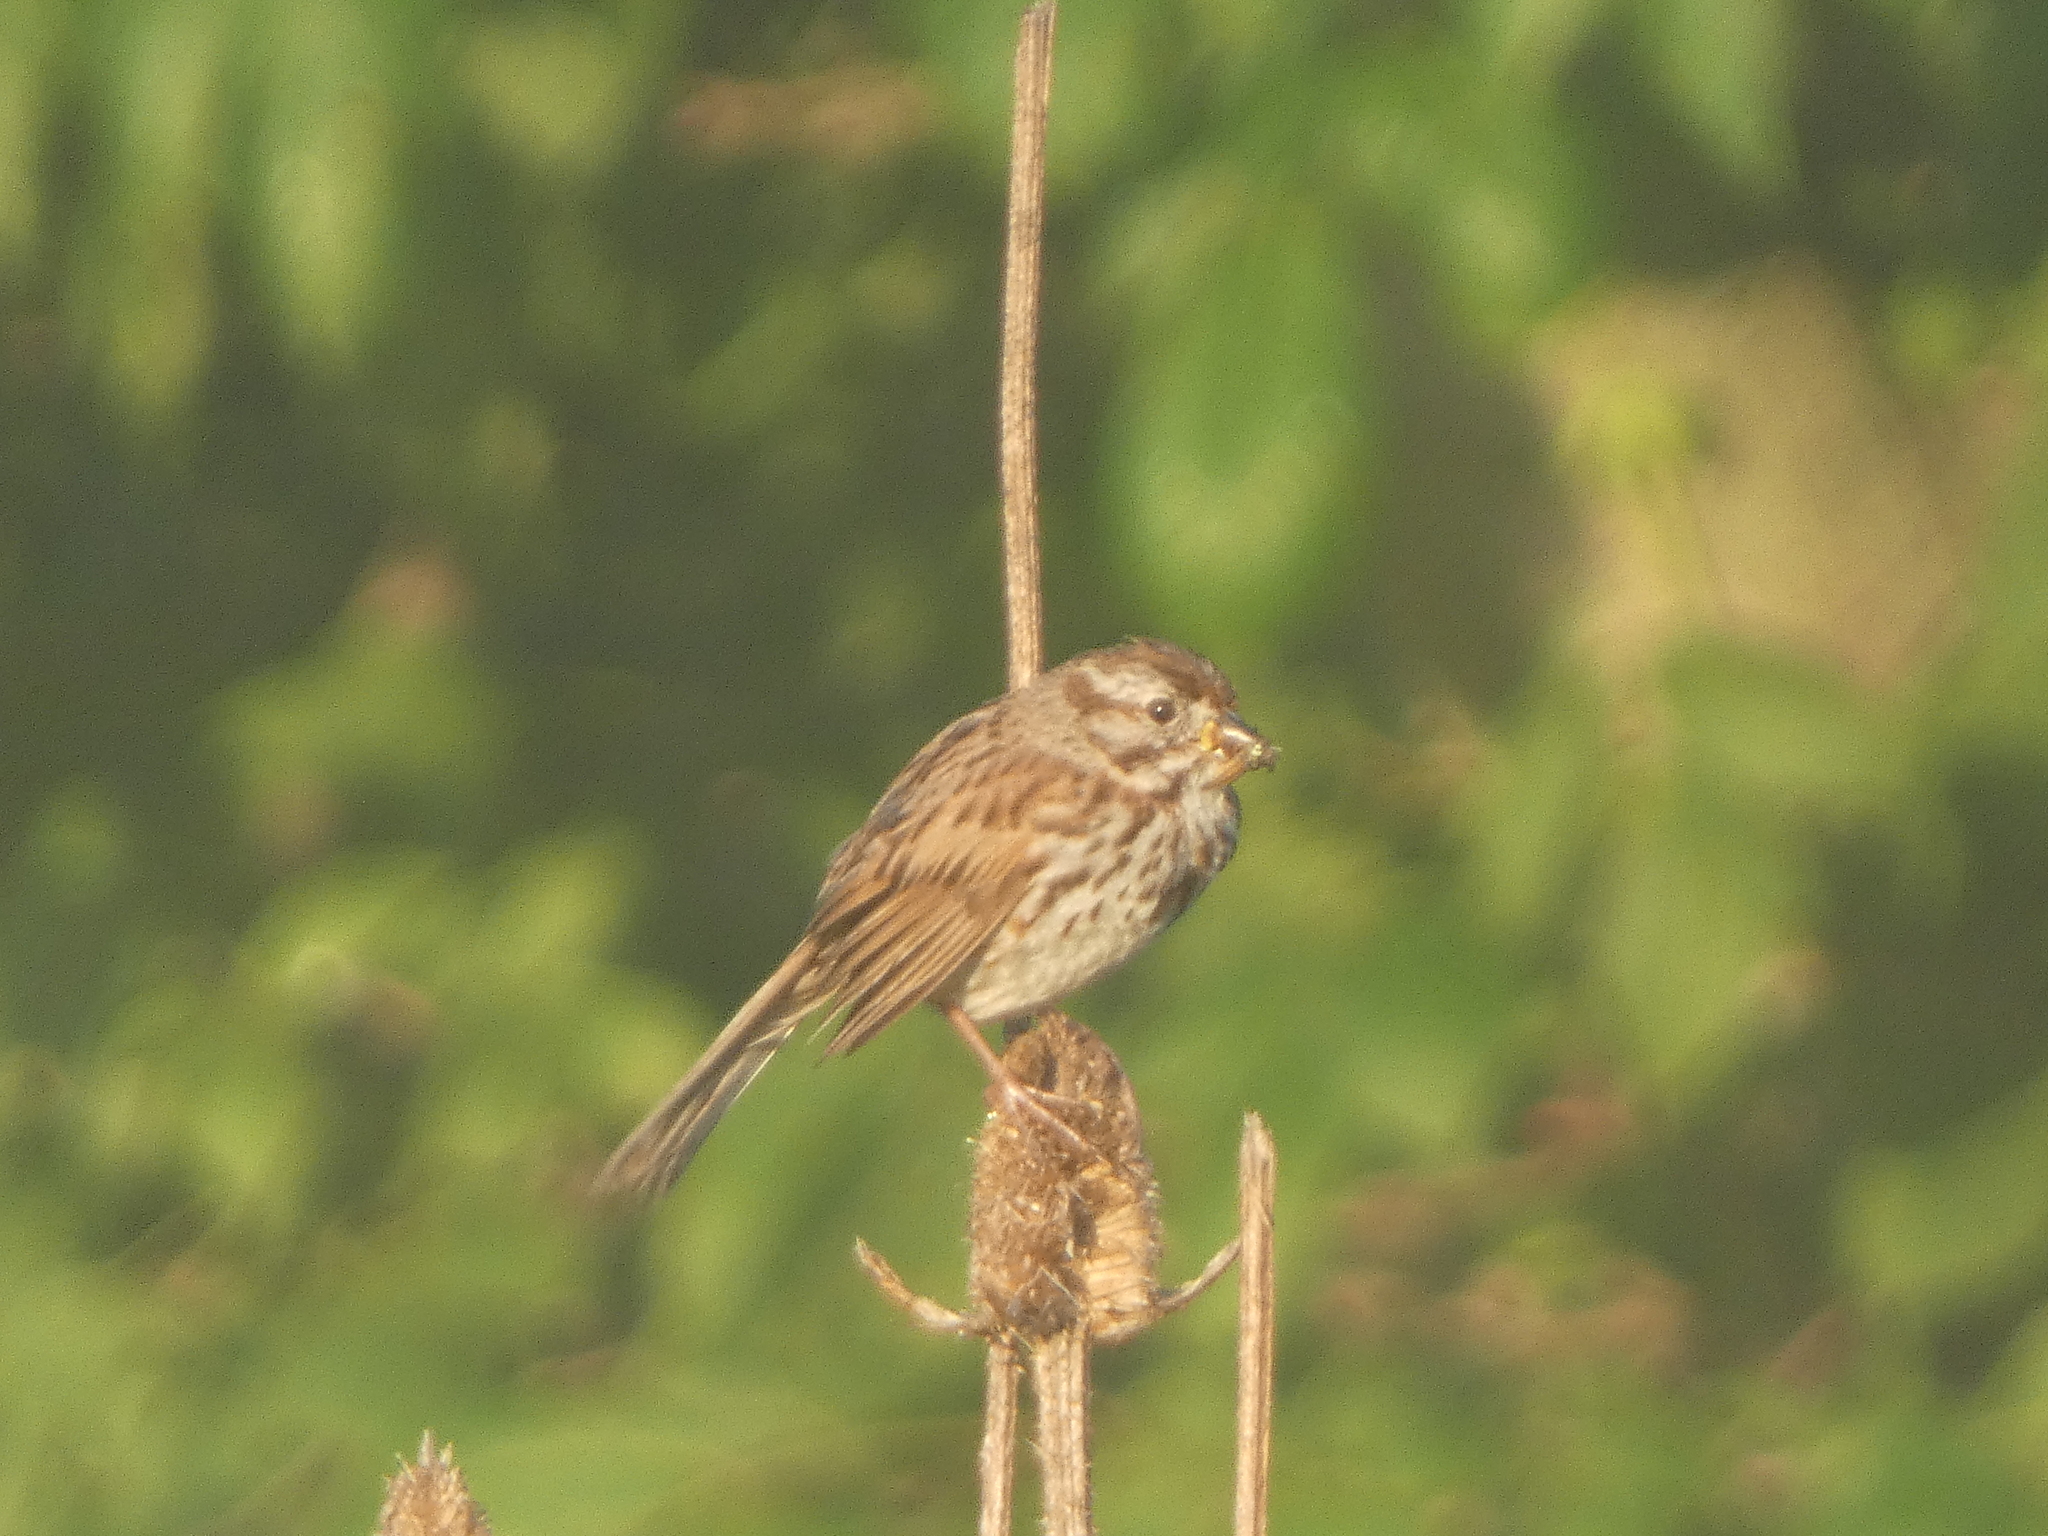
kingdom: Animalia
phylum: Chordata
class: Aves
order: Passeriformes
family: Passerellidae
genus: Melospiza
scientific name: Melospiza melodia
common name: Song sparrow
